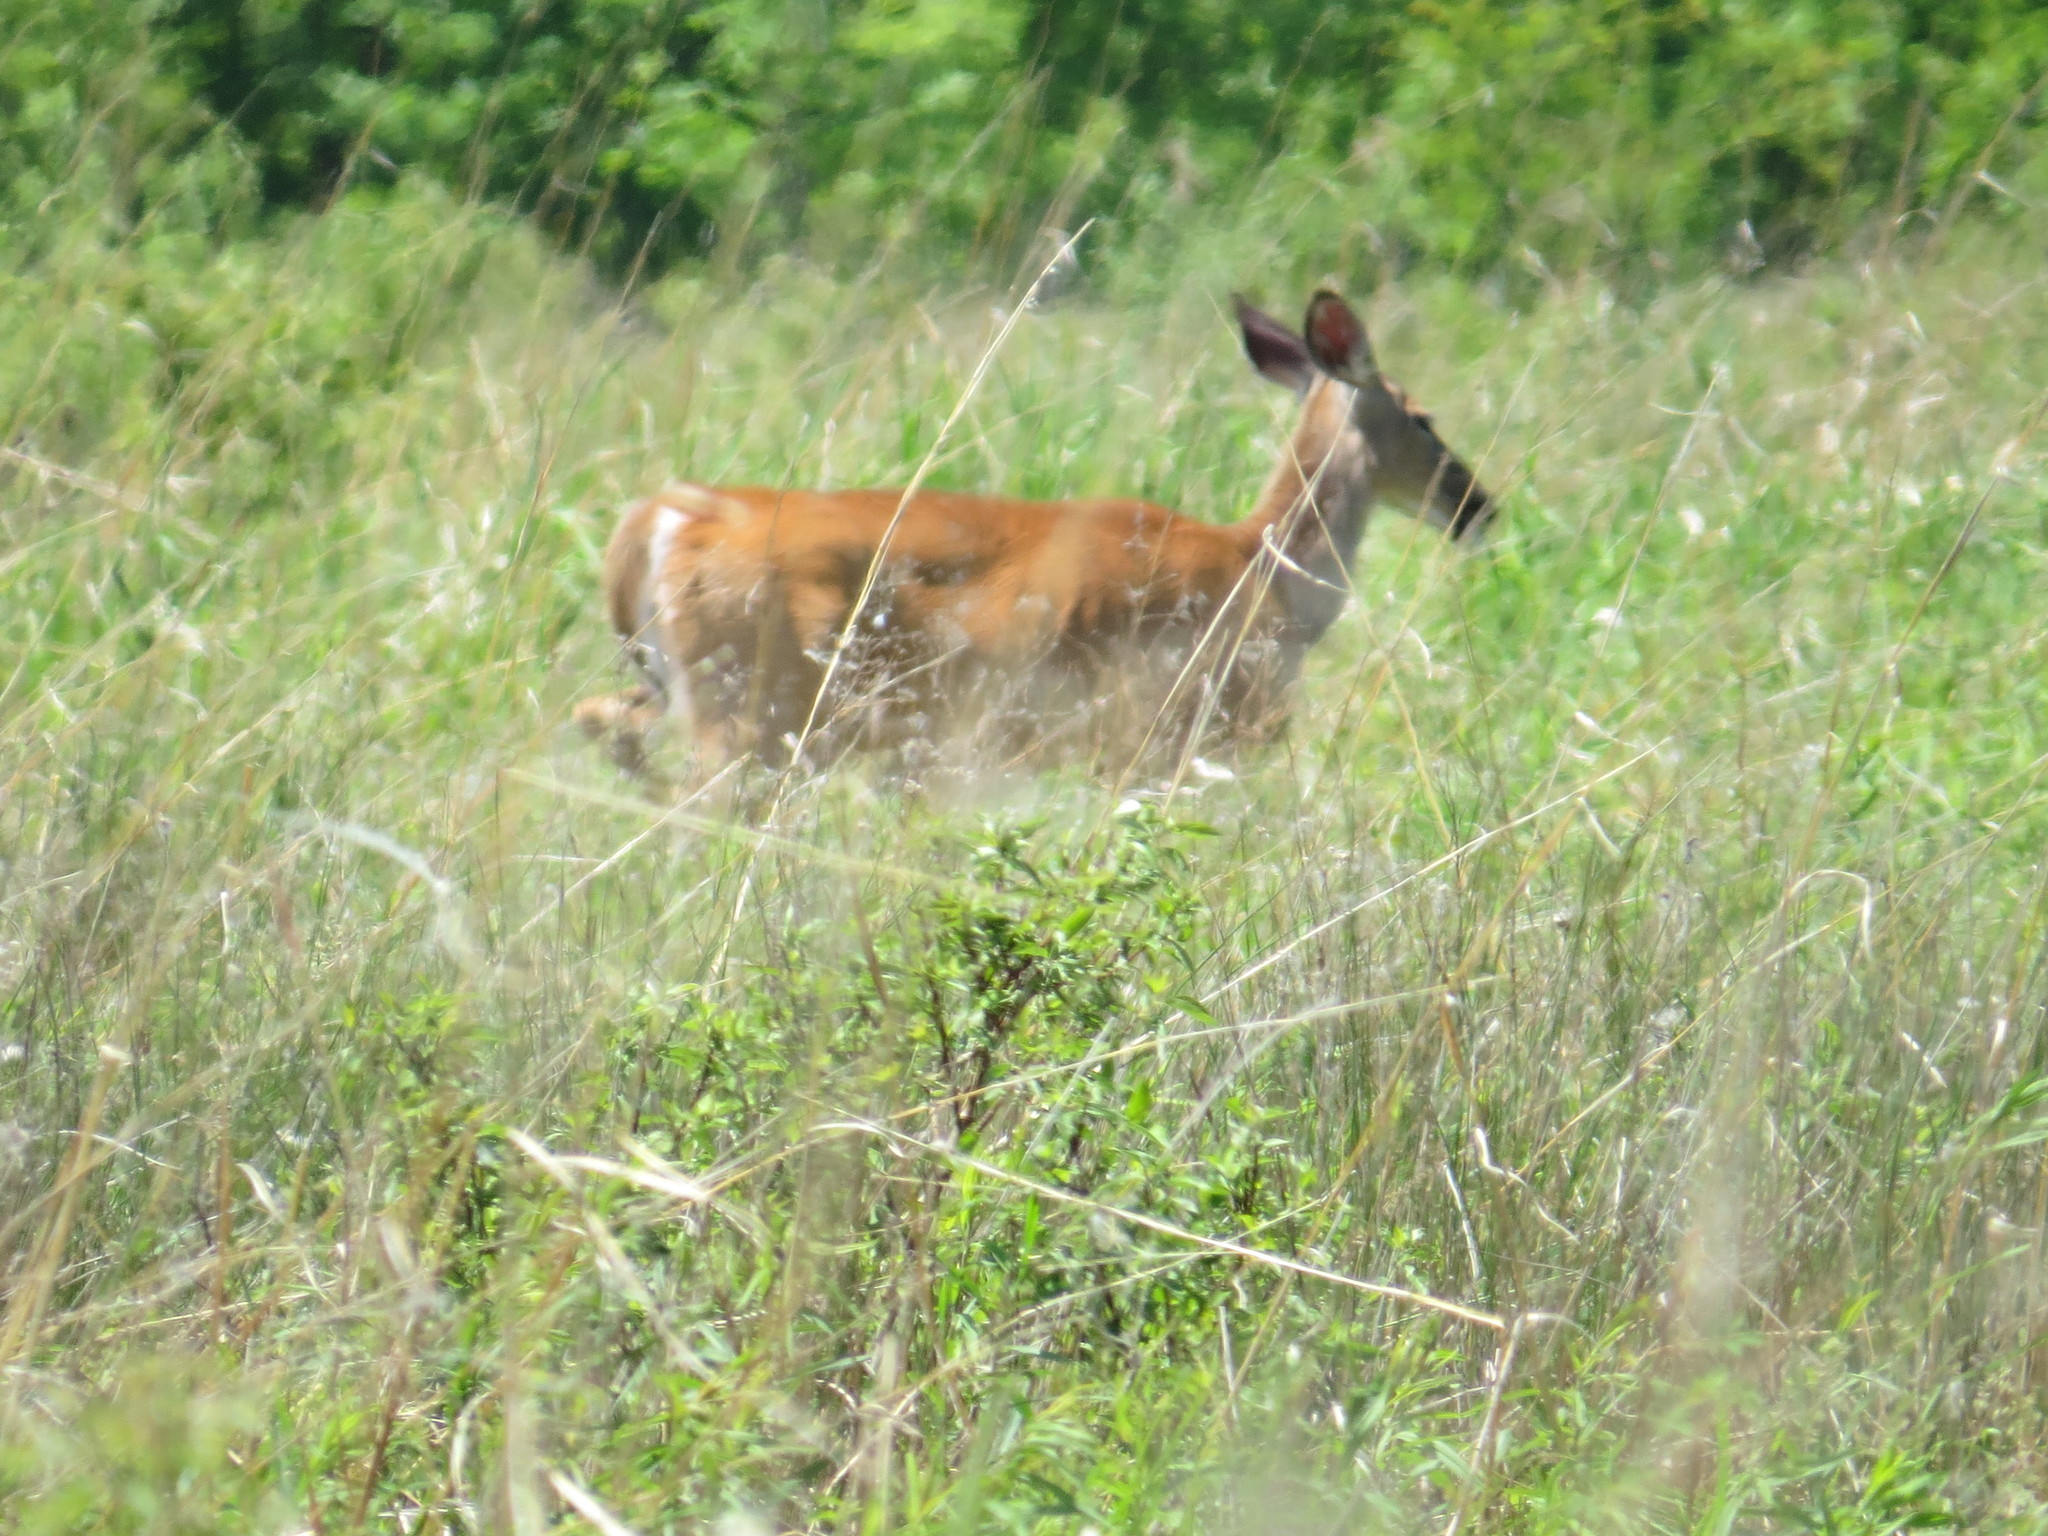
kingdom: Animalia
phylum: Chordata
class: Mammalia
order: Artiodactyla
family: Cervidae
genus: Odocoileus
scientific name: Odocoileus virginianus
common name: White-tailed deer
